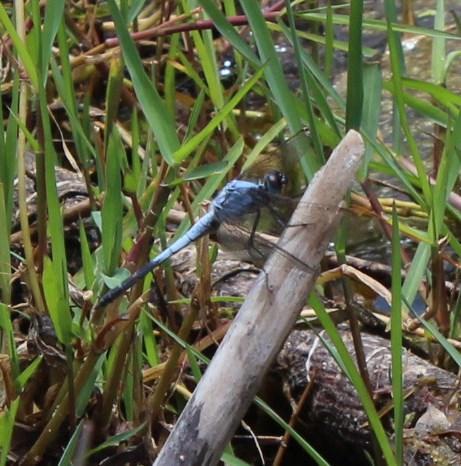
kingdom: Animalia
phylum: Arthropoda
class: Insecta
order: Odonata
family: Libellulidae
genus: Nesciothemis
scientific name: Nesciothemis farinosa
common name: Eastern blacktail
